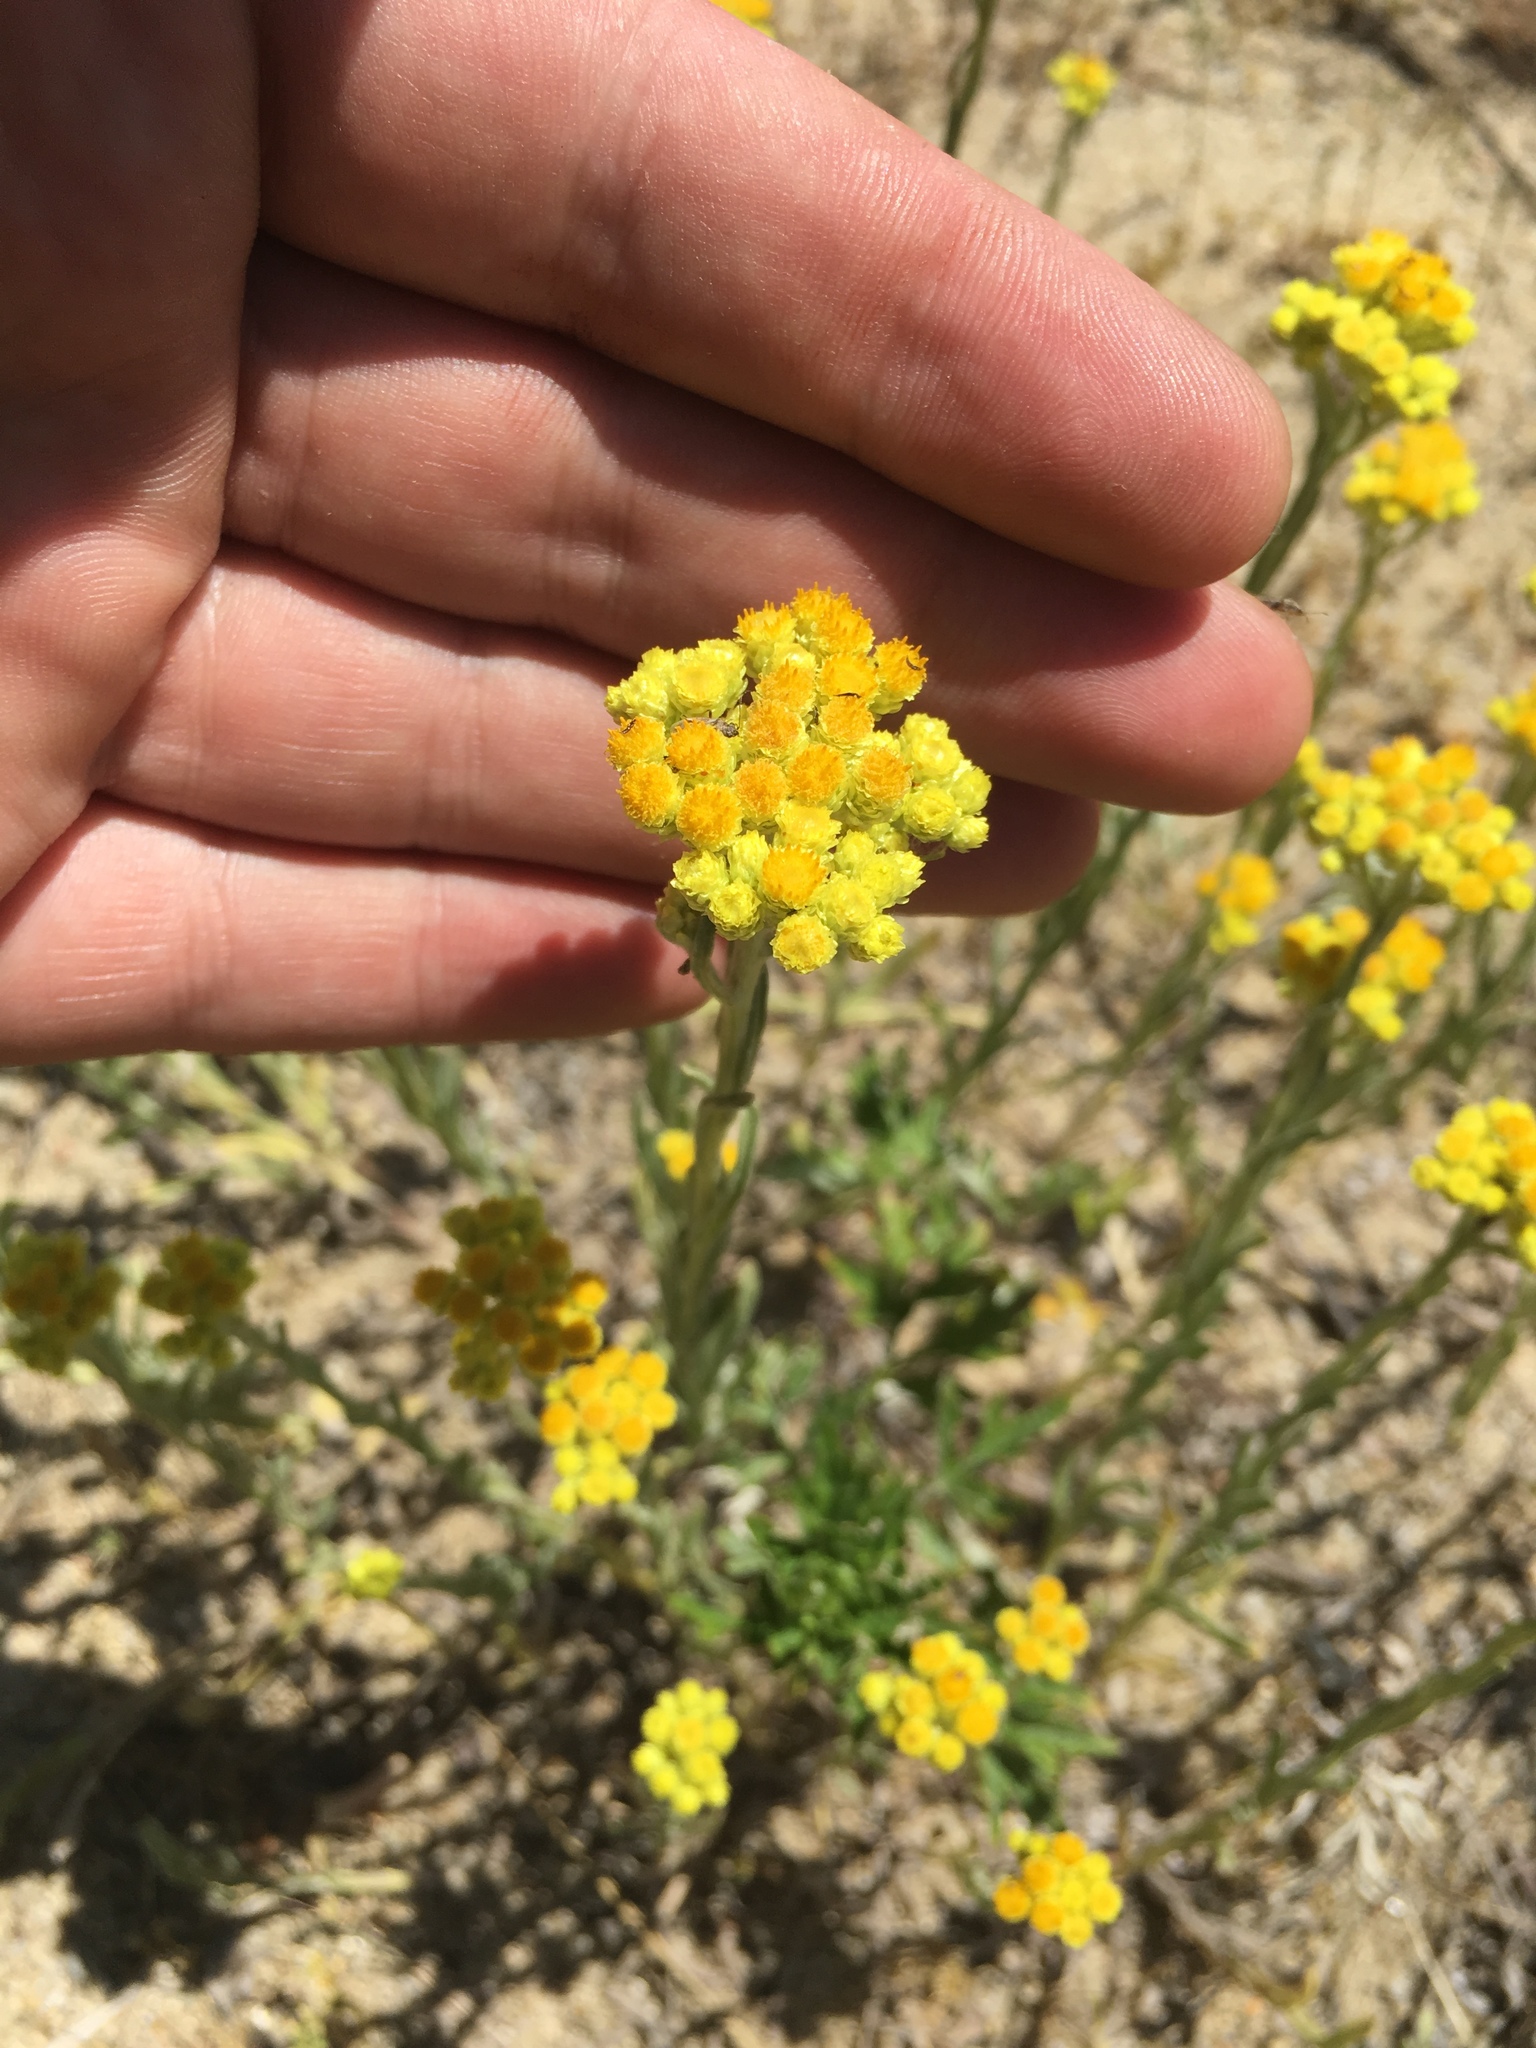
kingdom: Plantae
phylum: Tracheophyta
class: Magnoliopsida
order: Asterales
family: Asteraceae
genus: Helichrysum
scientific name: Helichrysum arenarium
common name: Strawflower
